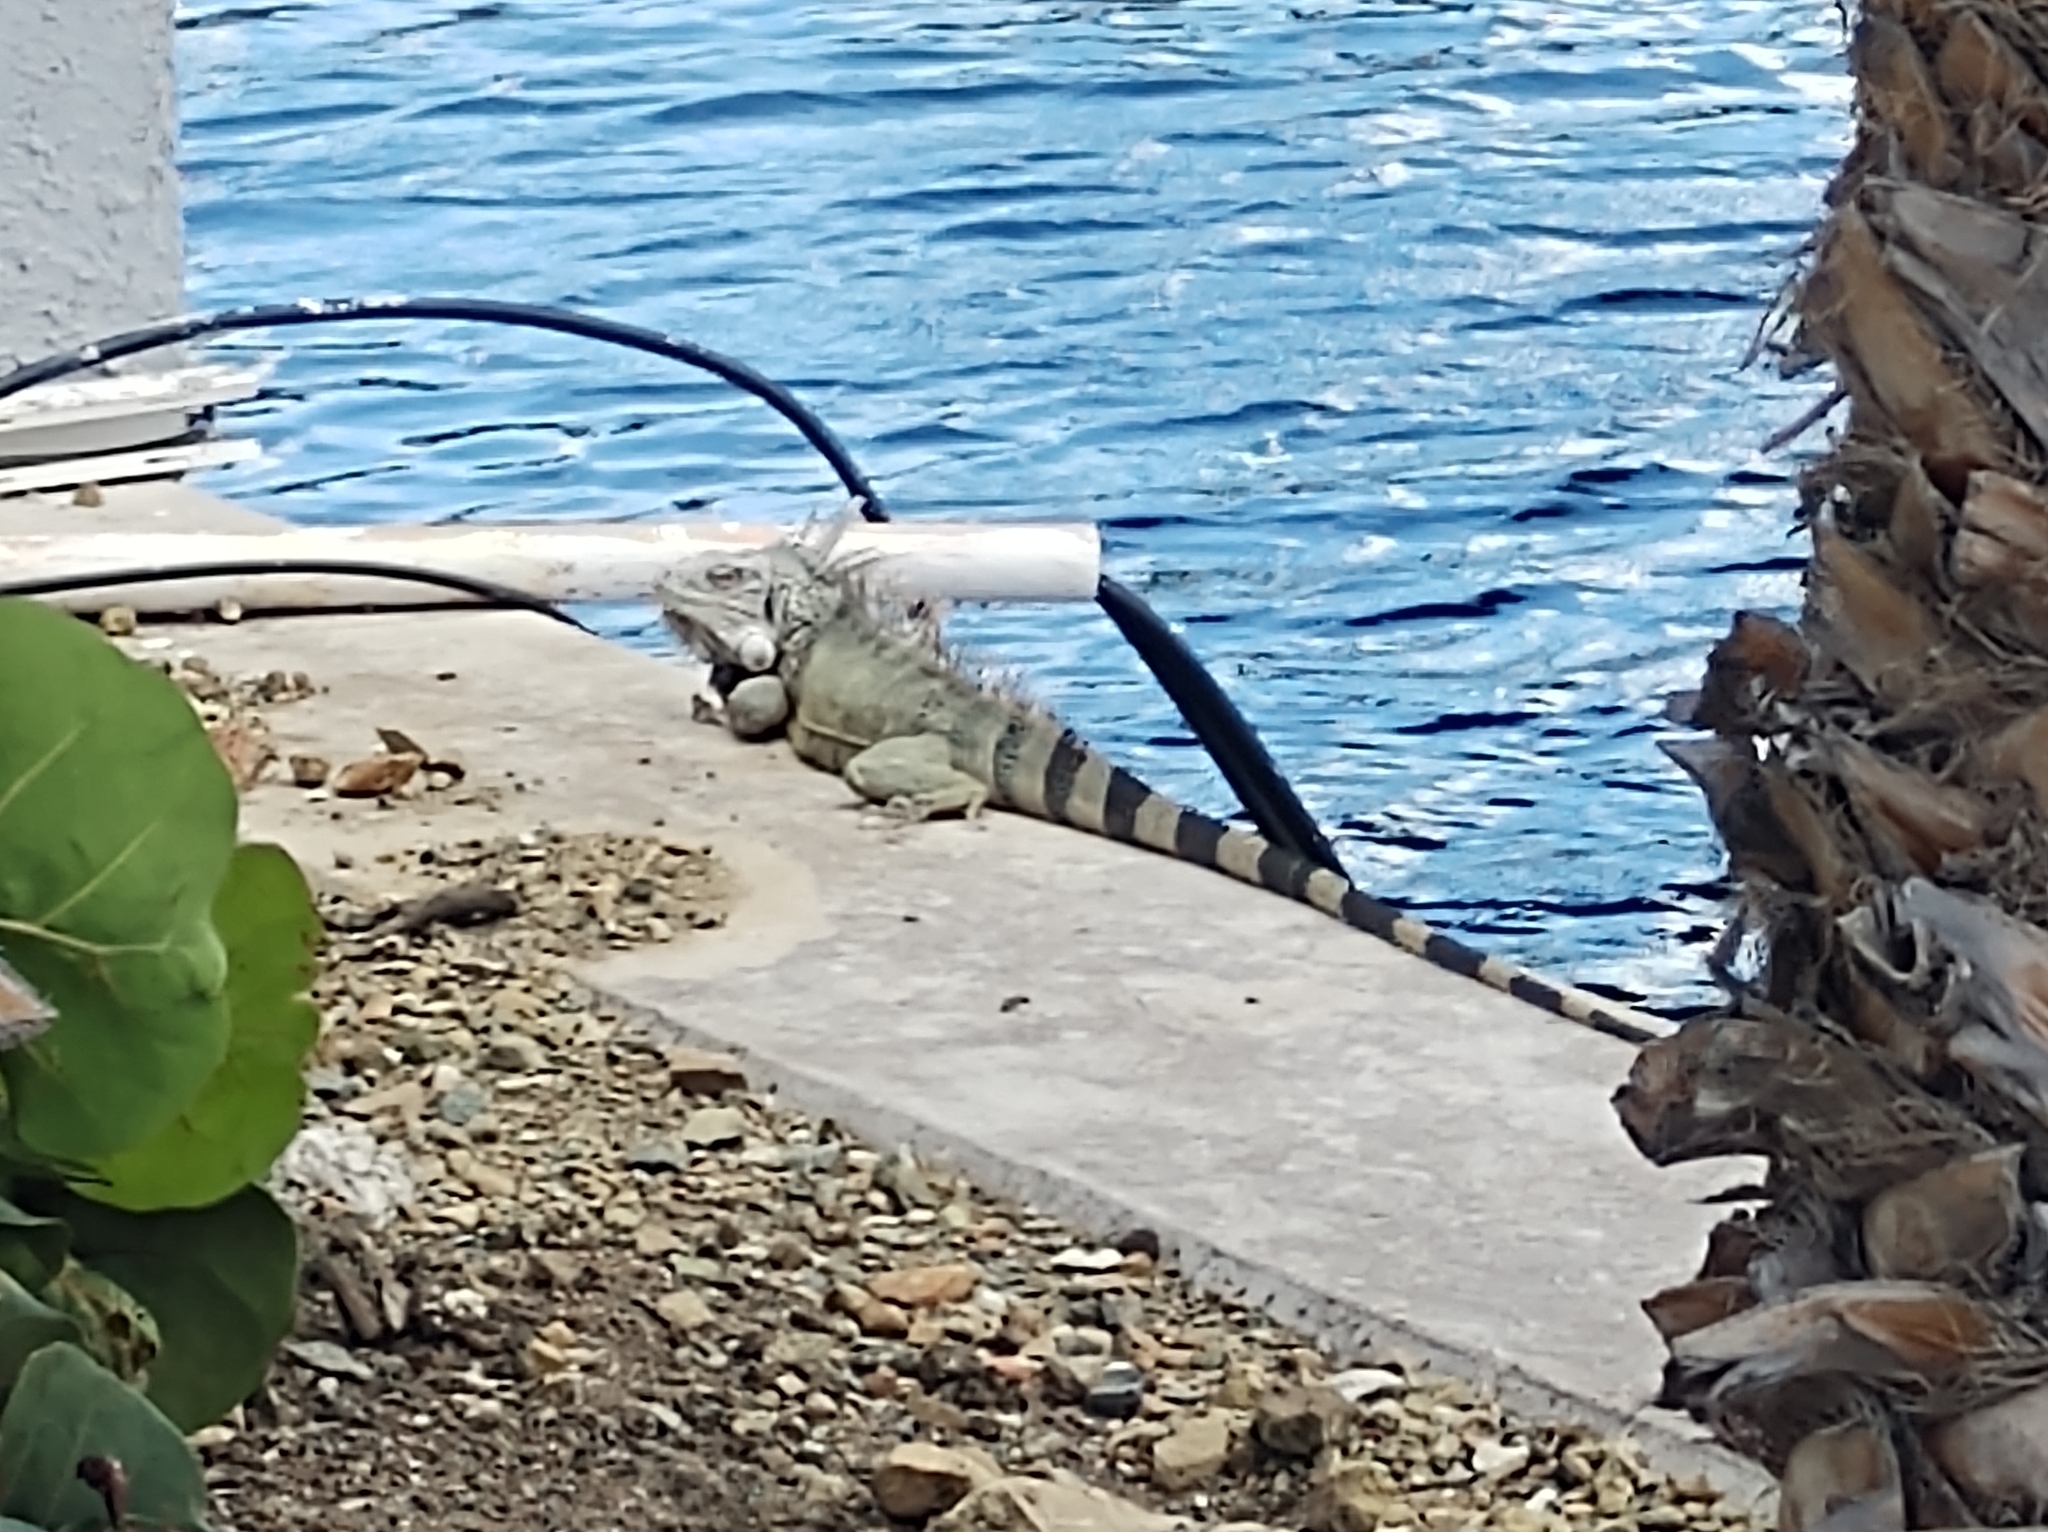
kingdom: Animalia
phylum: Chordata
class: Squamata
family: Iguanidae
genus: Iguana
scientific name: Iguana iguana
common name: Green iguana
